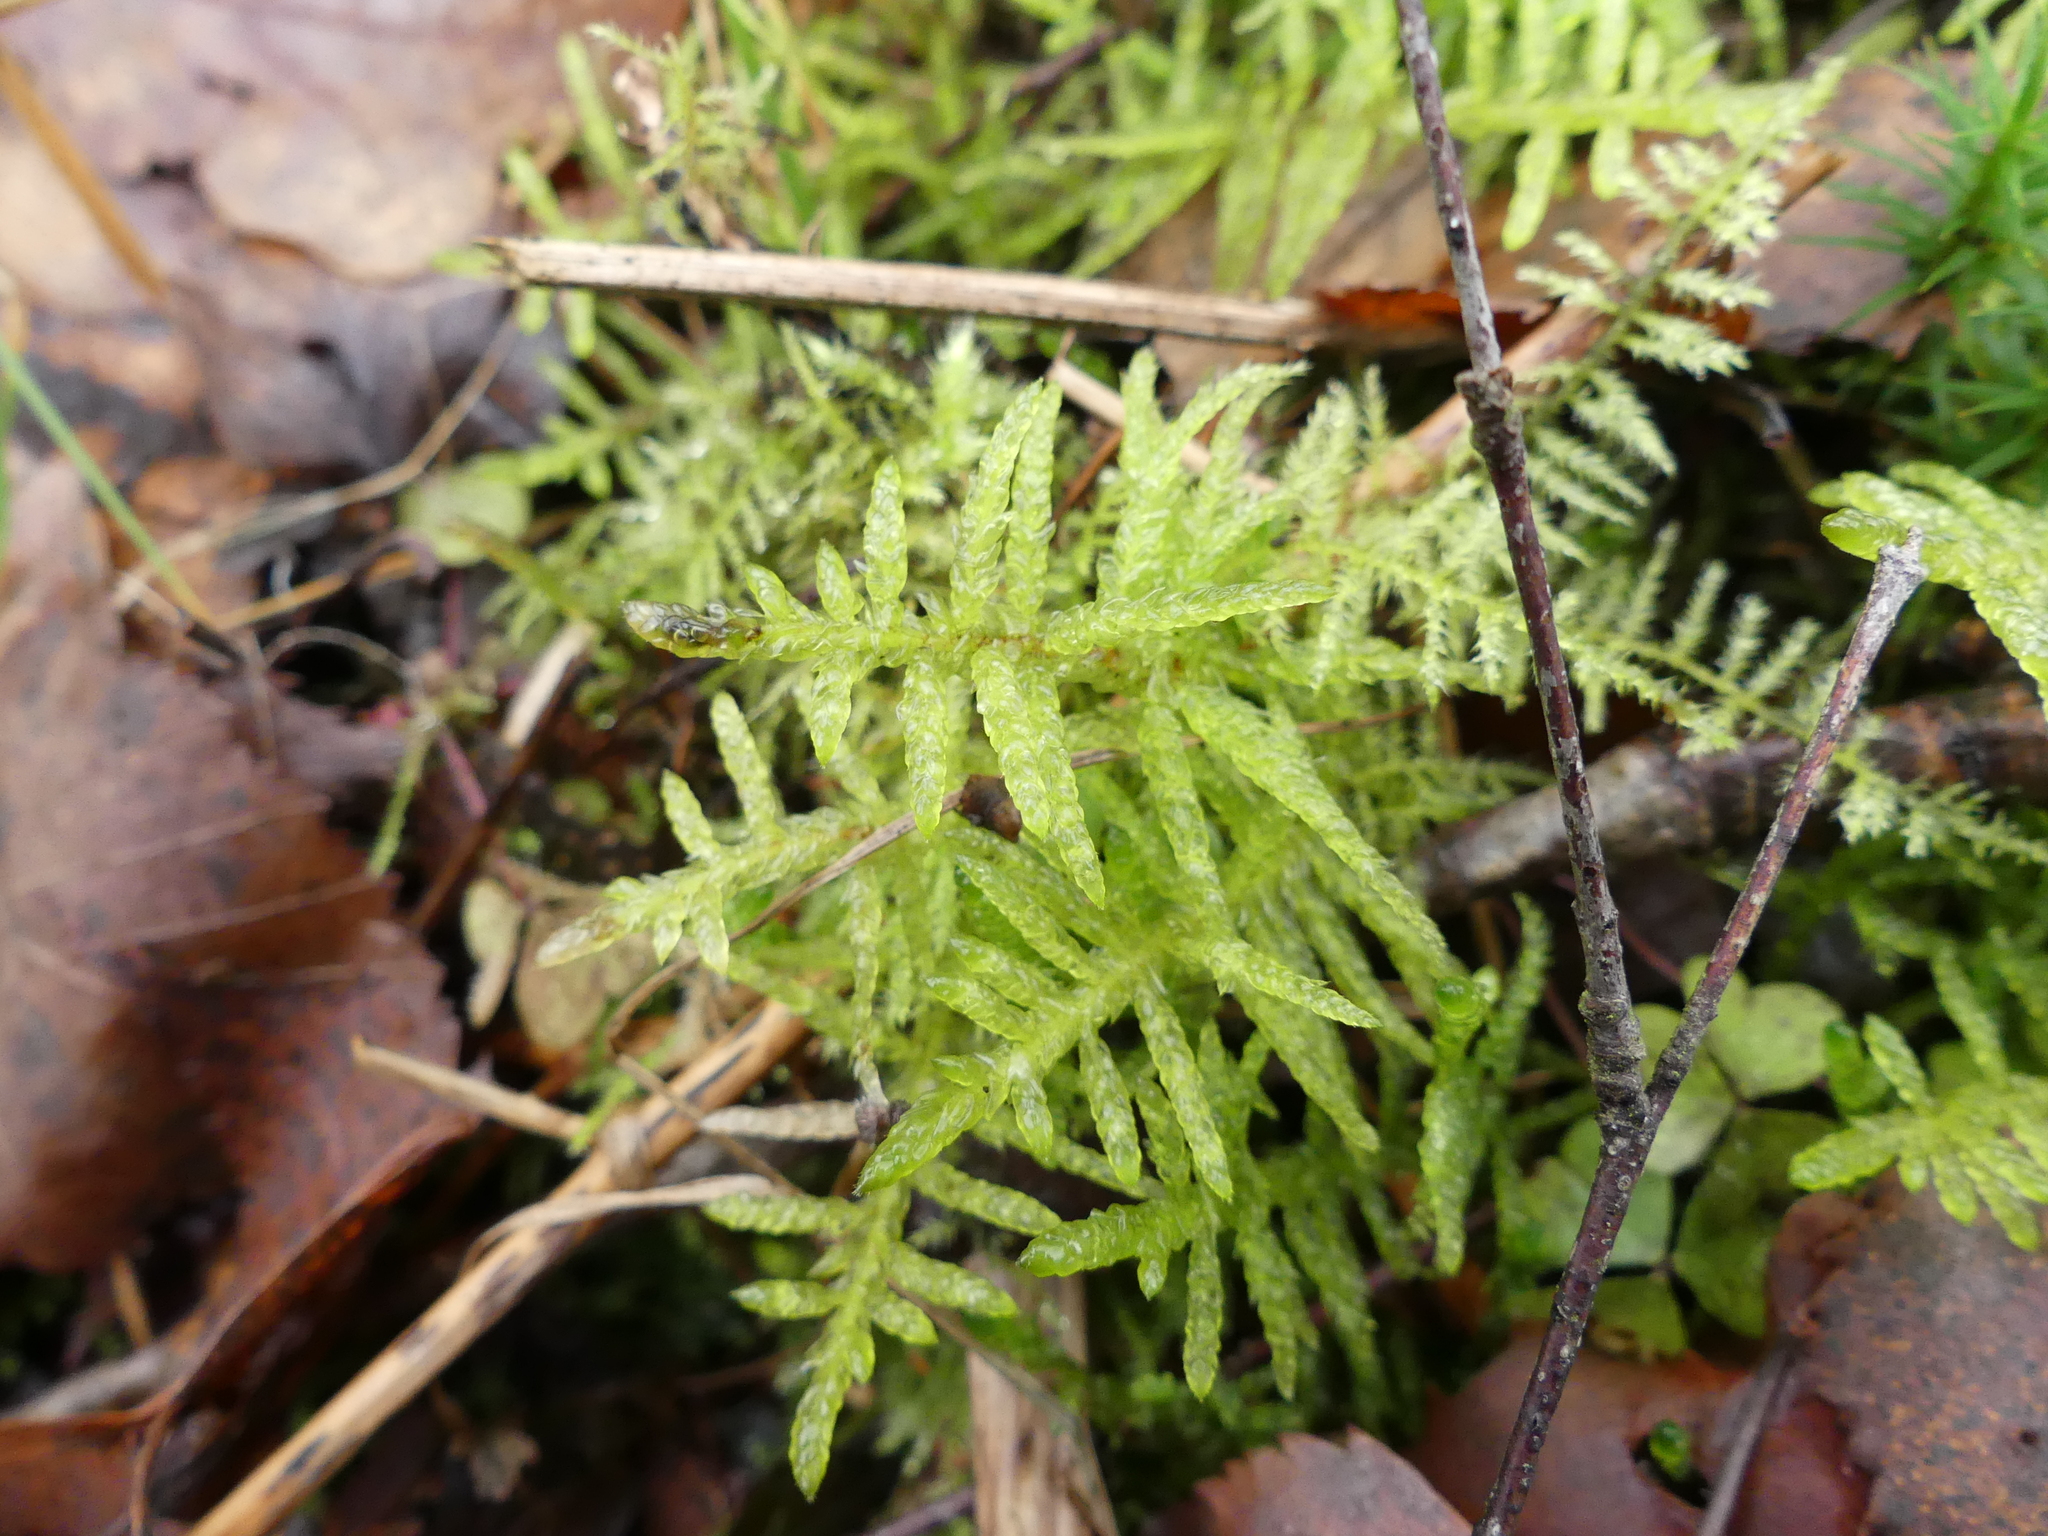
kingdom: Plantae
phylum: Bryophyta
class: Bryopsida
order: Hypnales
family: Brachytheciaceae
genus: Pseudoscleropodium
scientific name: Pseudoscleropodium purum
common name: Neat feather-moss
